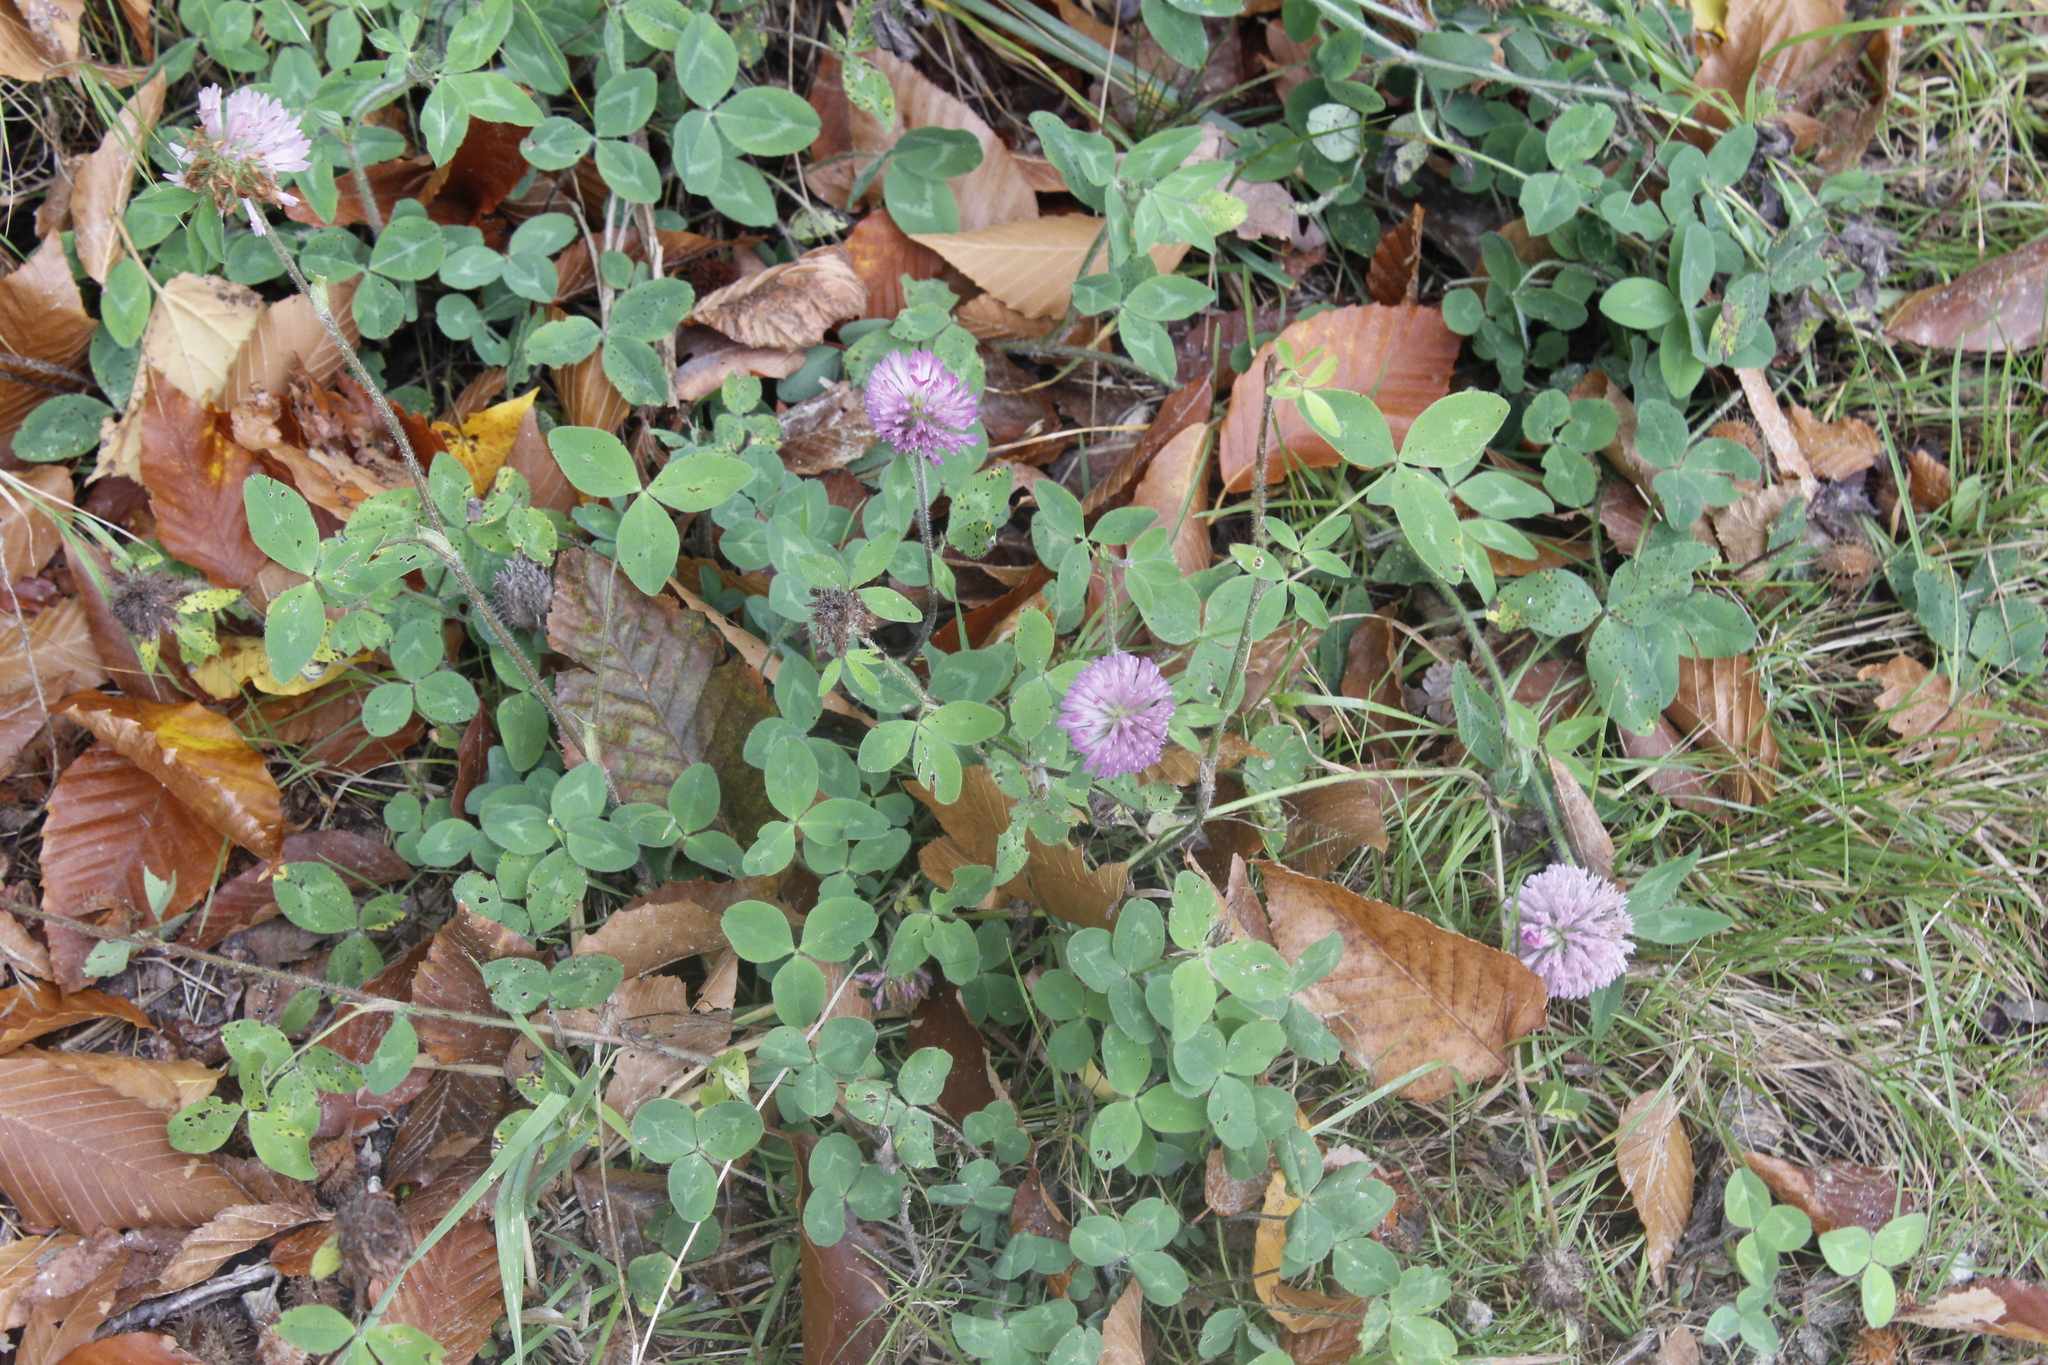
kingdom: Plantae
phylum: Tracheophyta
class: Magnoliopsida
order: Fabales
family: Fabaceae
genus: Trifolium
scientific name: Trifolium pratense
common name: Red clover
